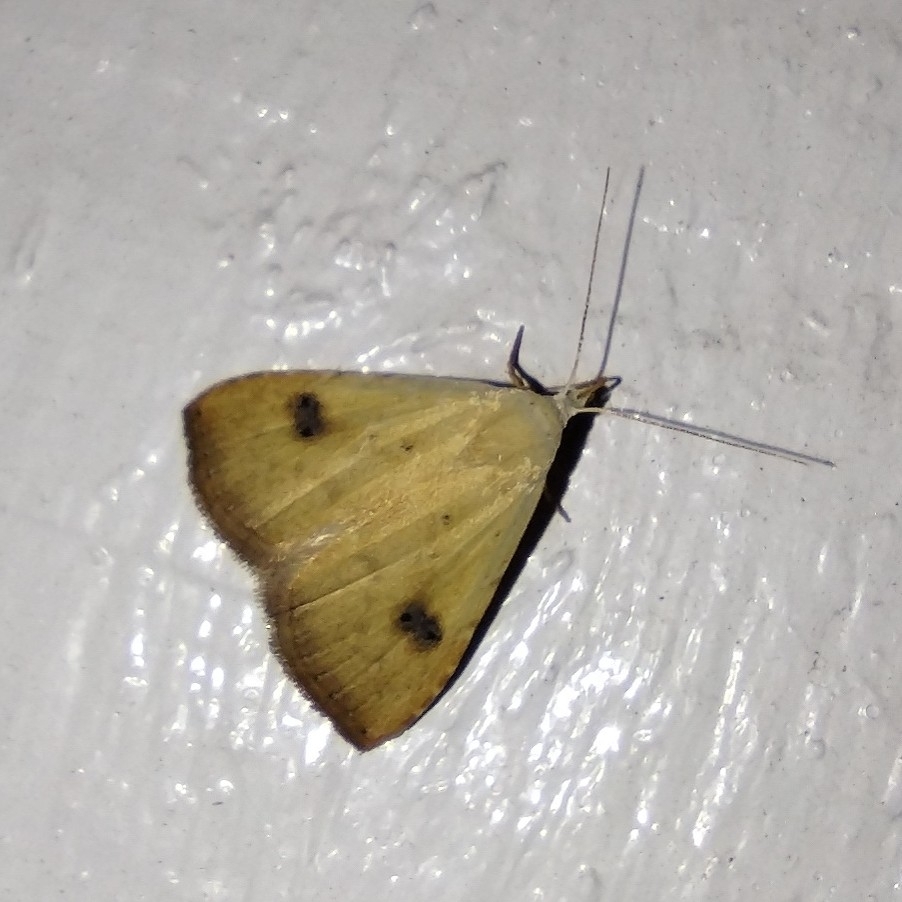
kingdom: Animalia
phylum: Arthropoda
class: Insecta
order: Lepidoptera
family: Erebidae
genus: Rivula
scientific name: Rivula sericealis
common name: Straw dot
